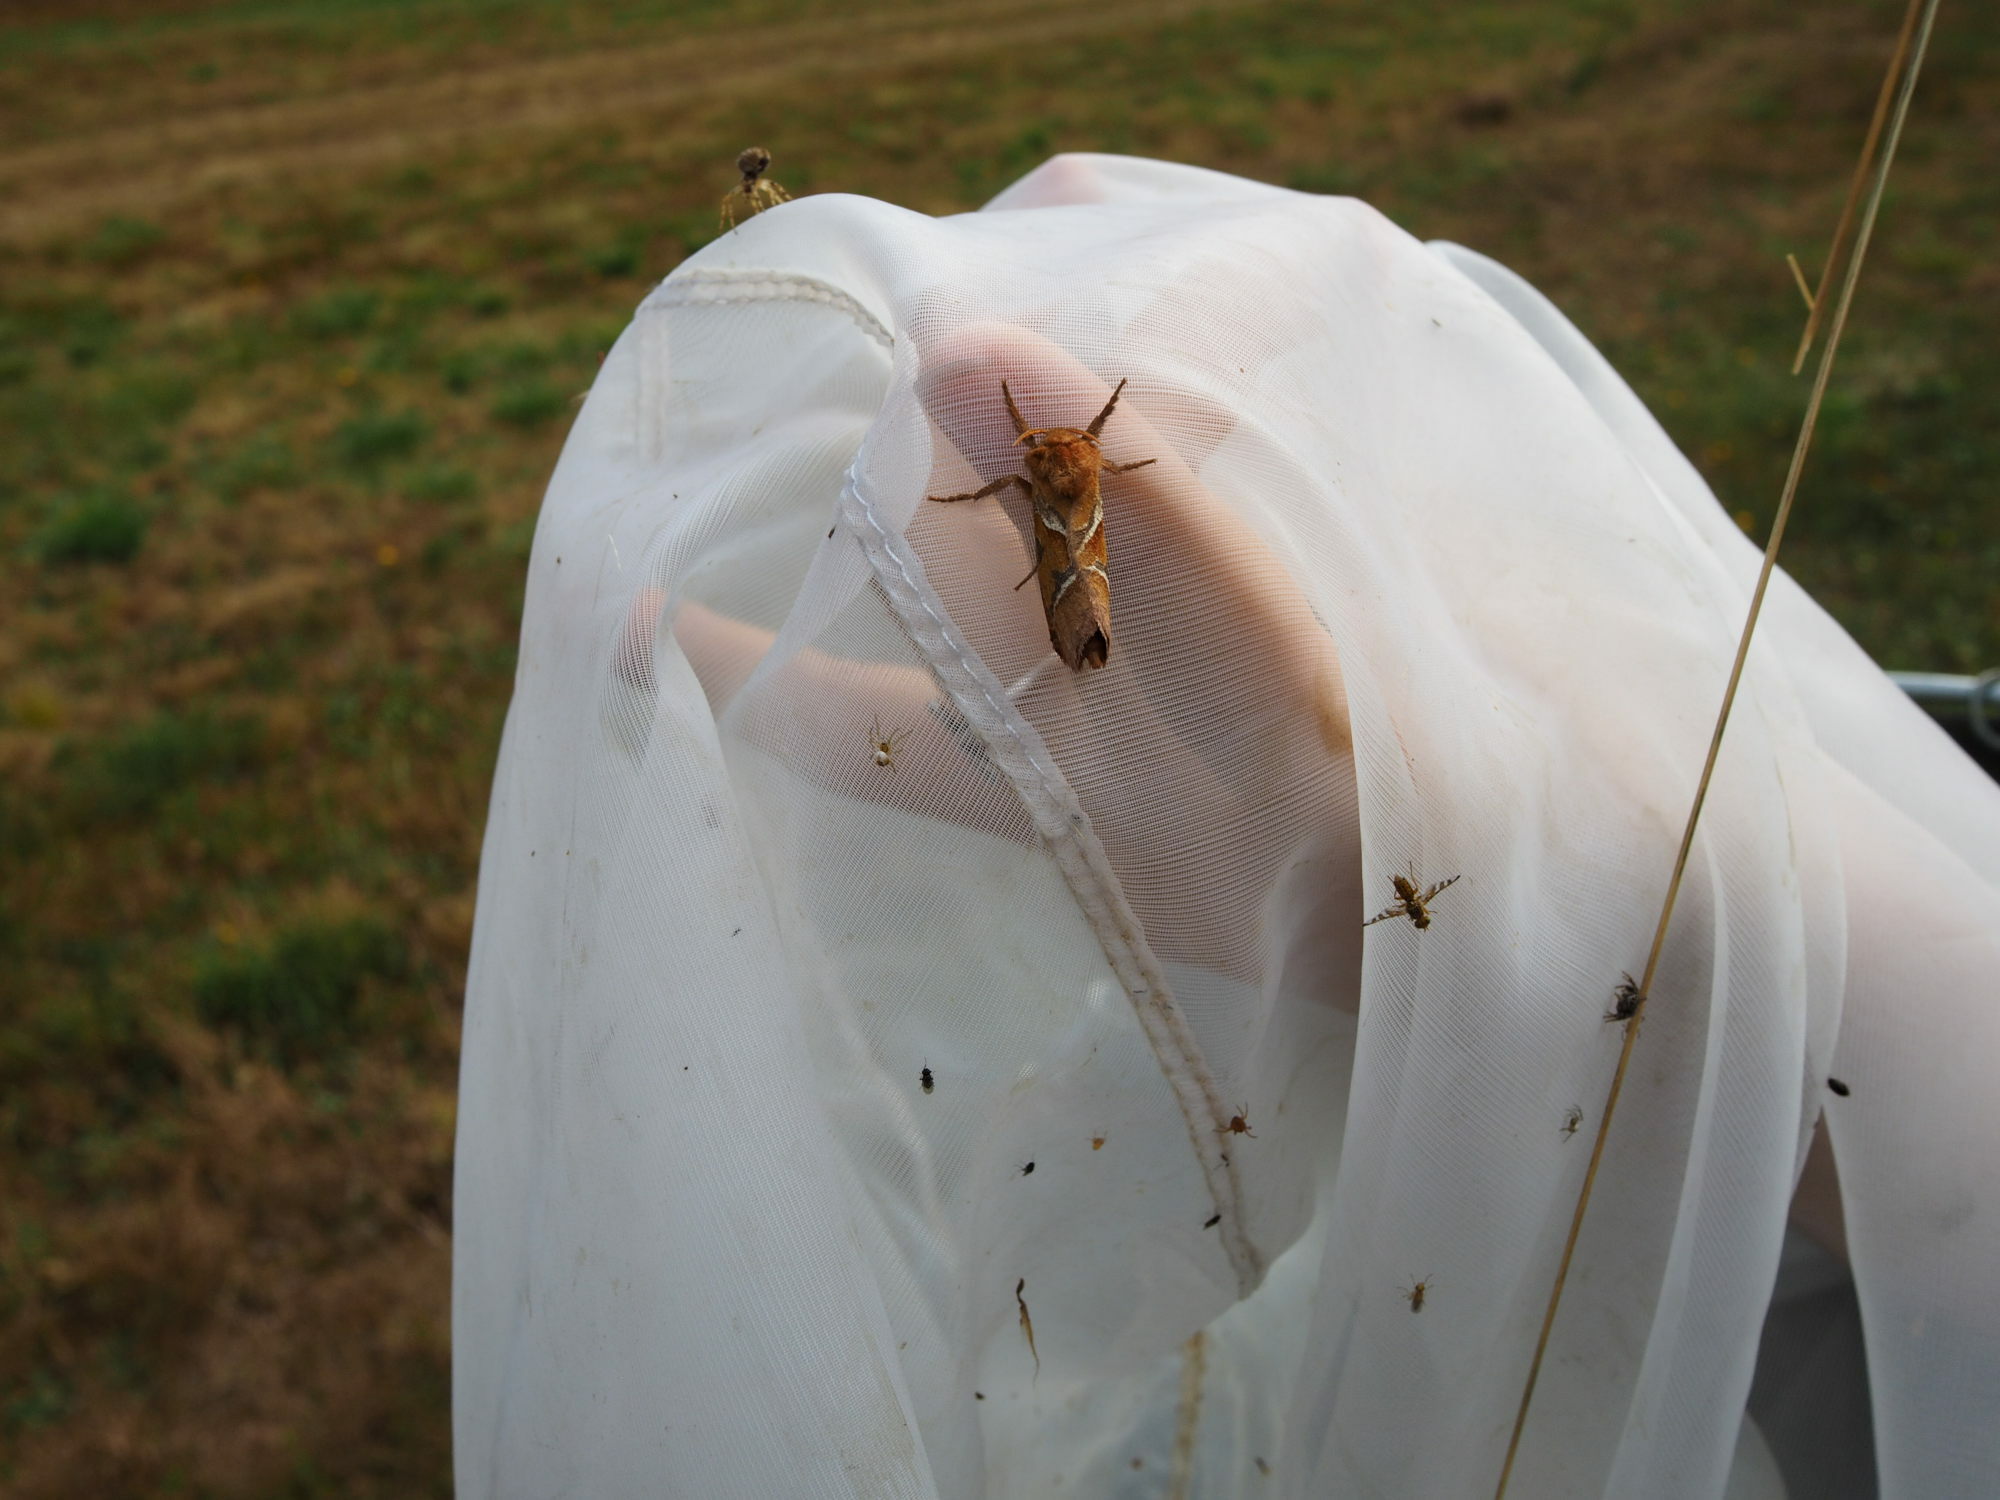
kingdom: Animalia
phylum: Arthropoda
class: Insecta
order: Lepidoptera
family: Hepialidae
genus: Triodia
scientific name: Triodia sylvina
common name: Orange swift
